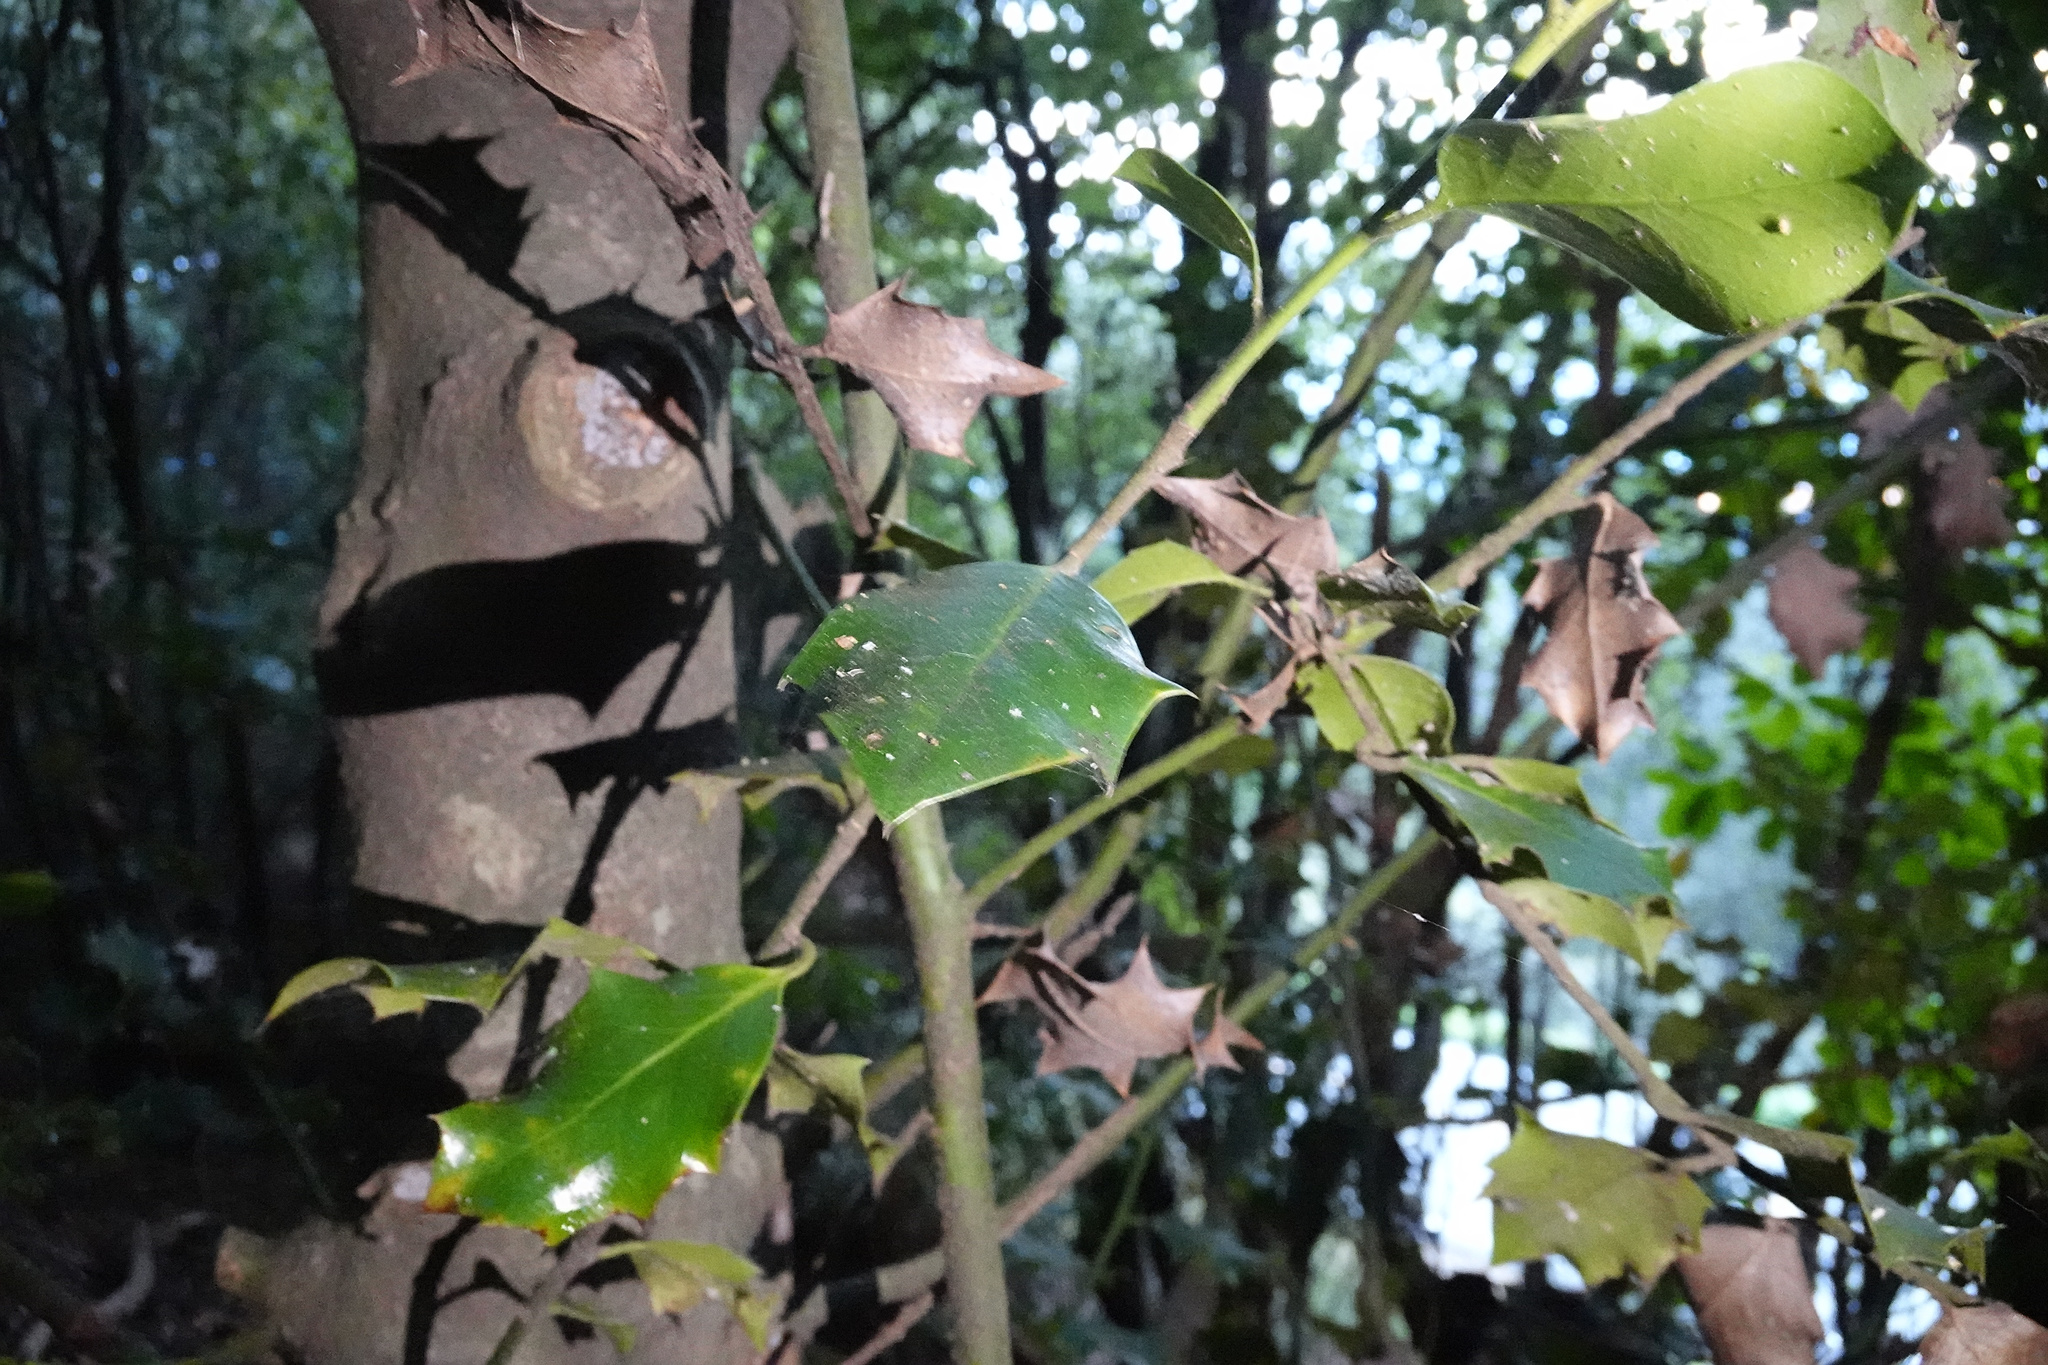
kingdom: Plantae
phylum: Tracheophyta
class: Magnoliopsida
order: Aquifoliales
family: Aquifoliaceae
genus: Ilex
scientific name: Ilex aquifolium
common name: English holly
